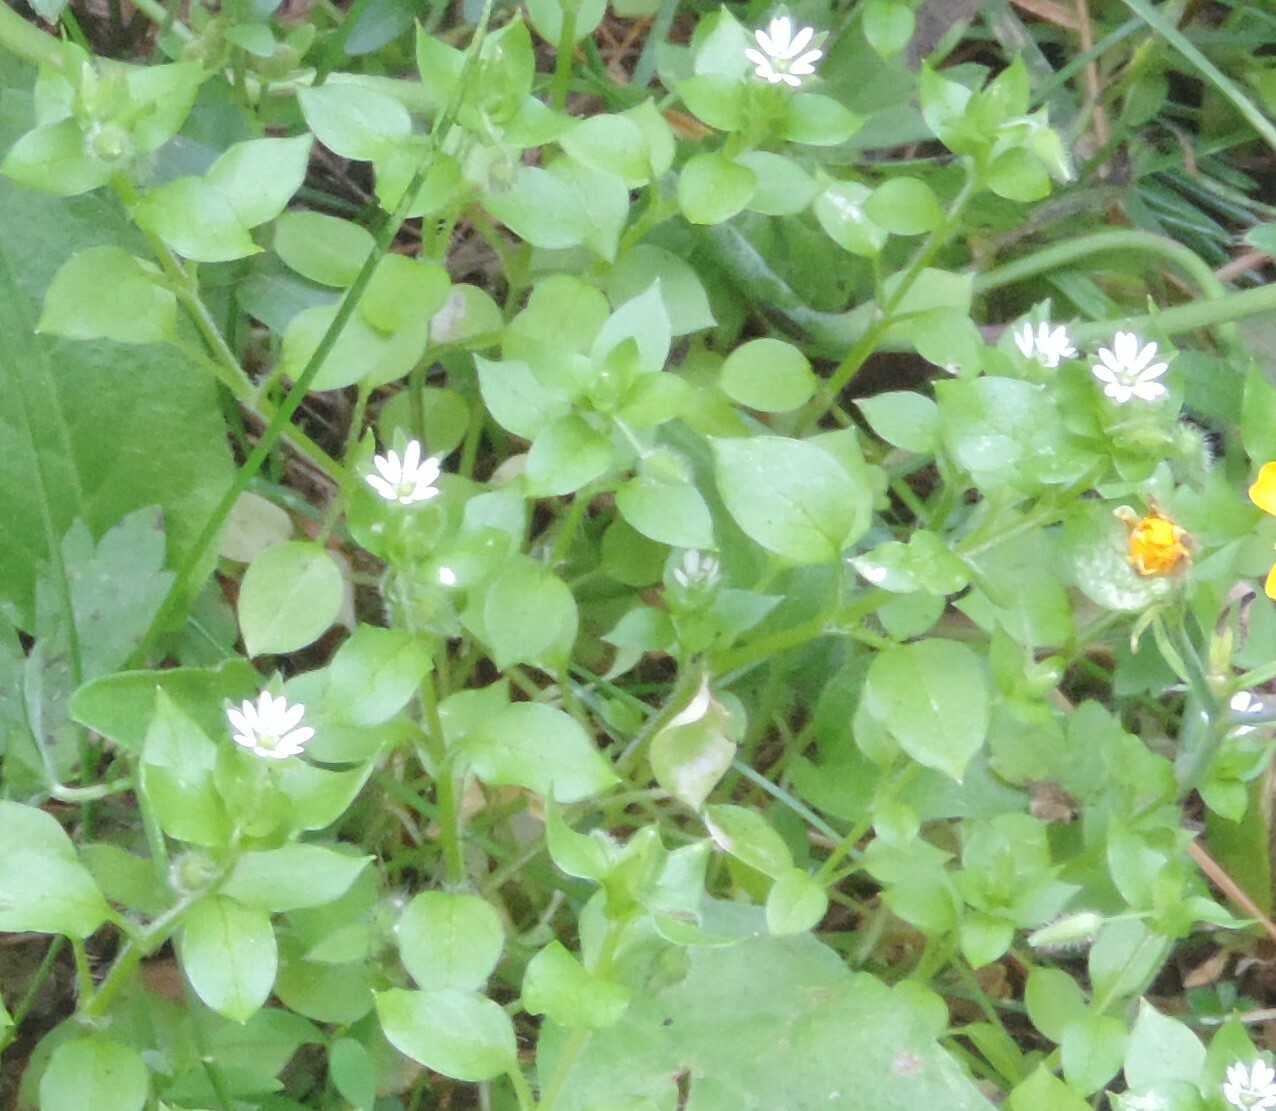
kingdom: Plantae
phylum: Tracheophyta
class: Magnoliopsida
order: Caryophyllales
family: Caryophyllaceae
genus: Stellaria
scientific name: Stellaria media
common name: Common chickweed
